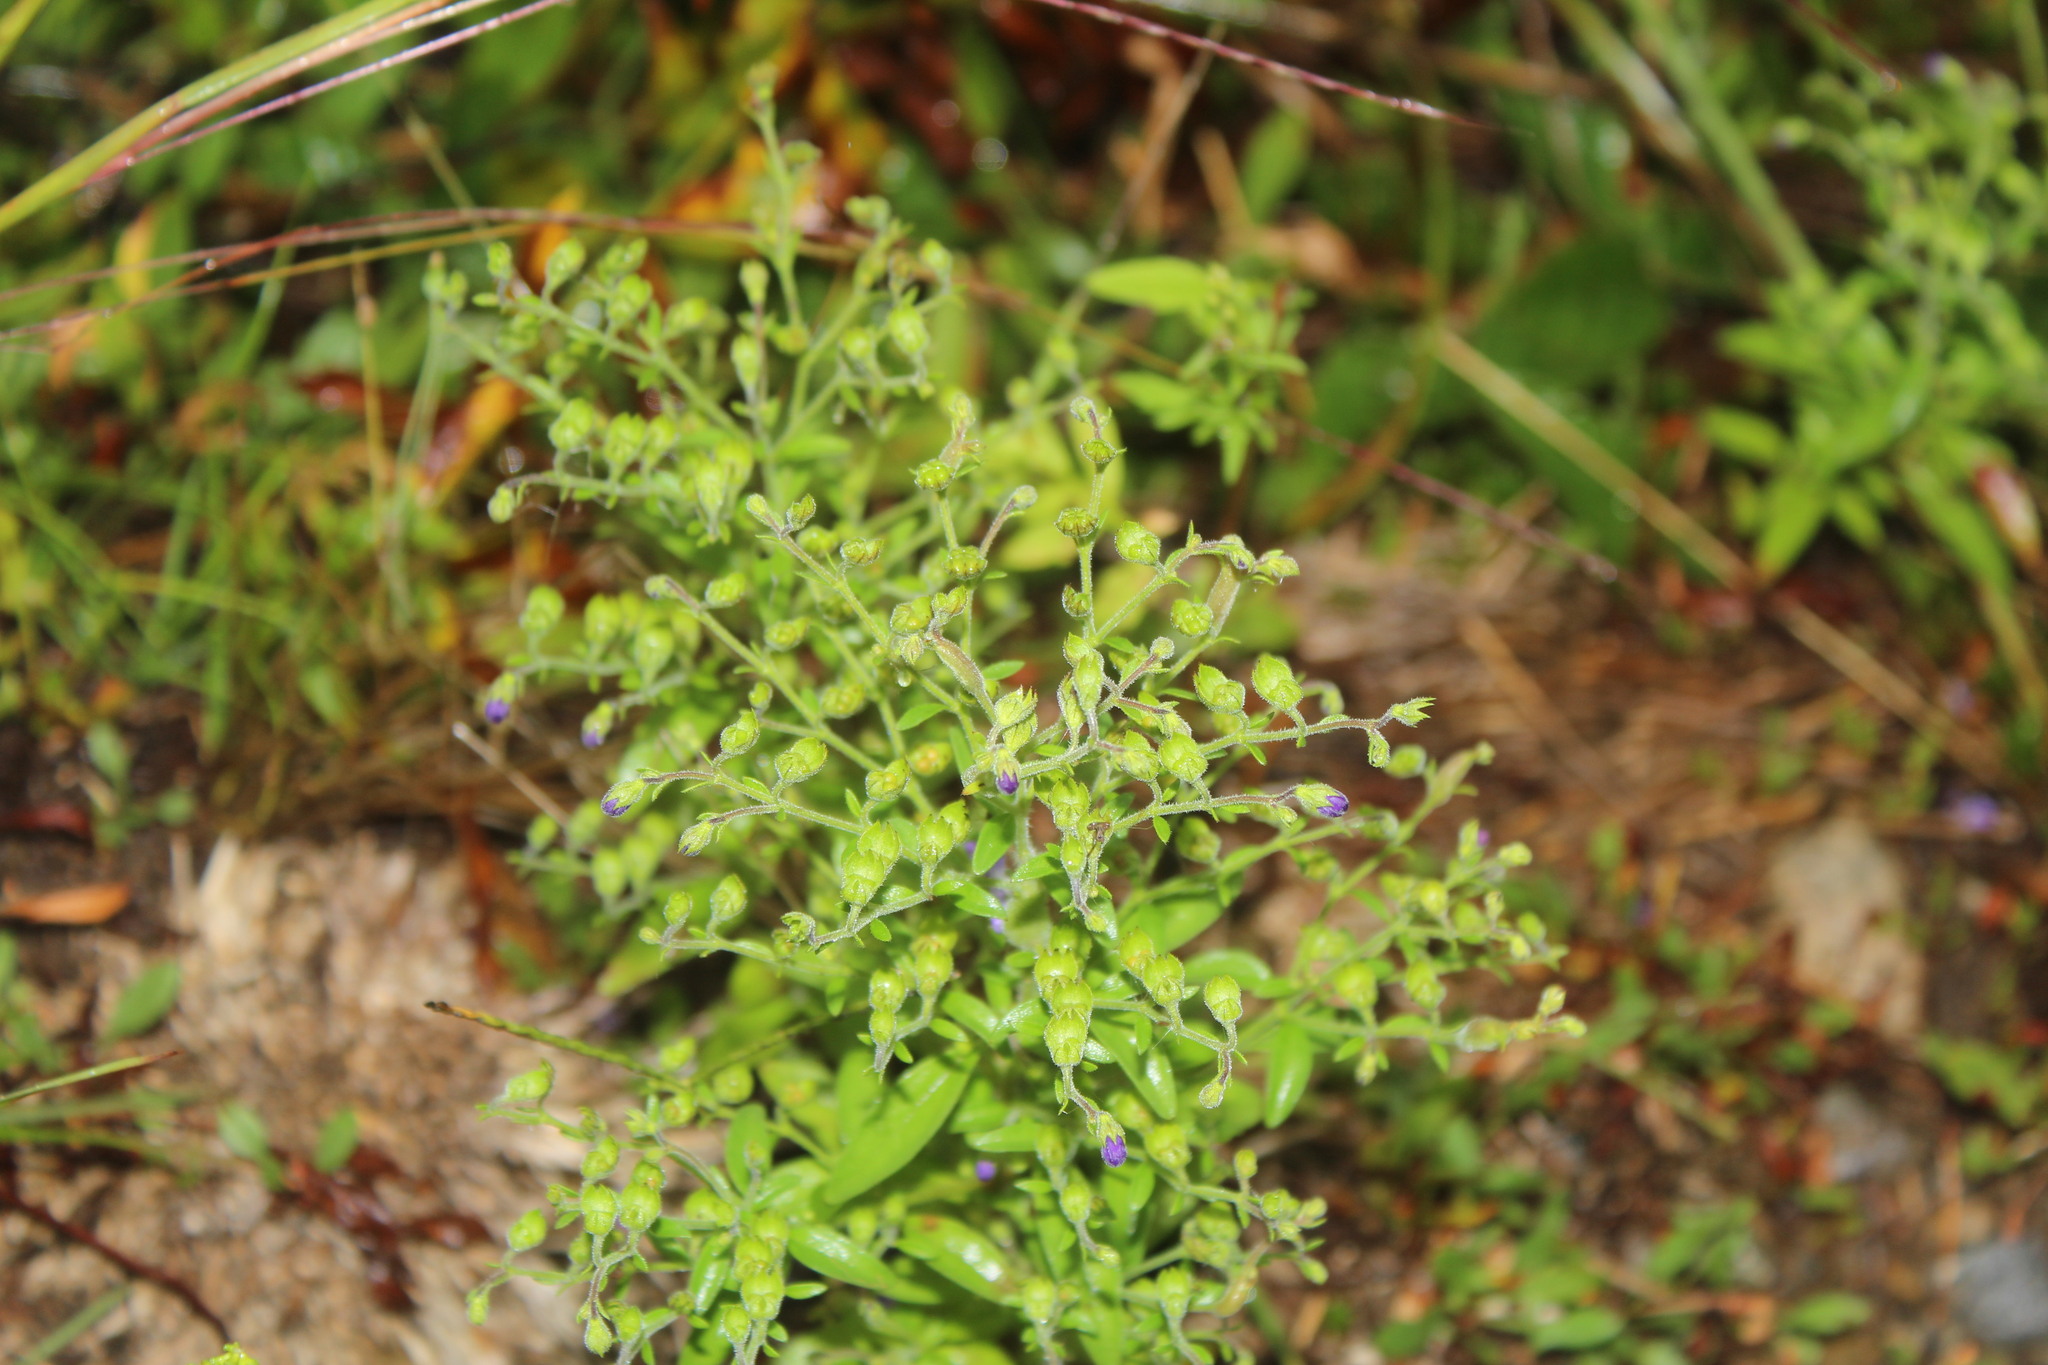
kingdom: Plantae
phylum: Tracheophyta
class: Magnoliopsida
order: Lamiales
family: Lamiaceae
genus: Trichostema
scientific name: Trichostema dichotomum
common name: Bastard pennyroyal
